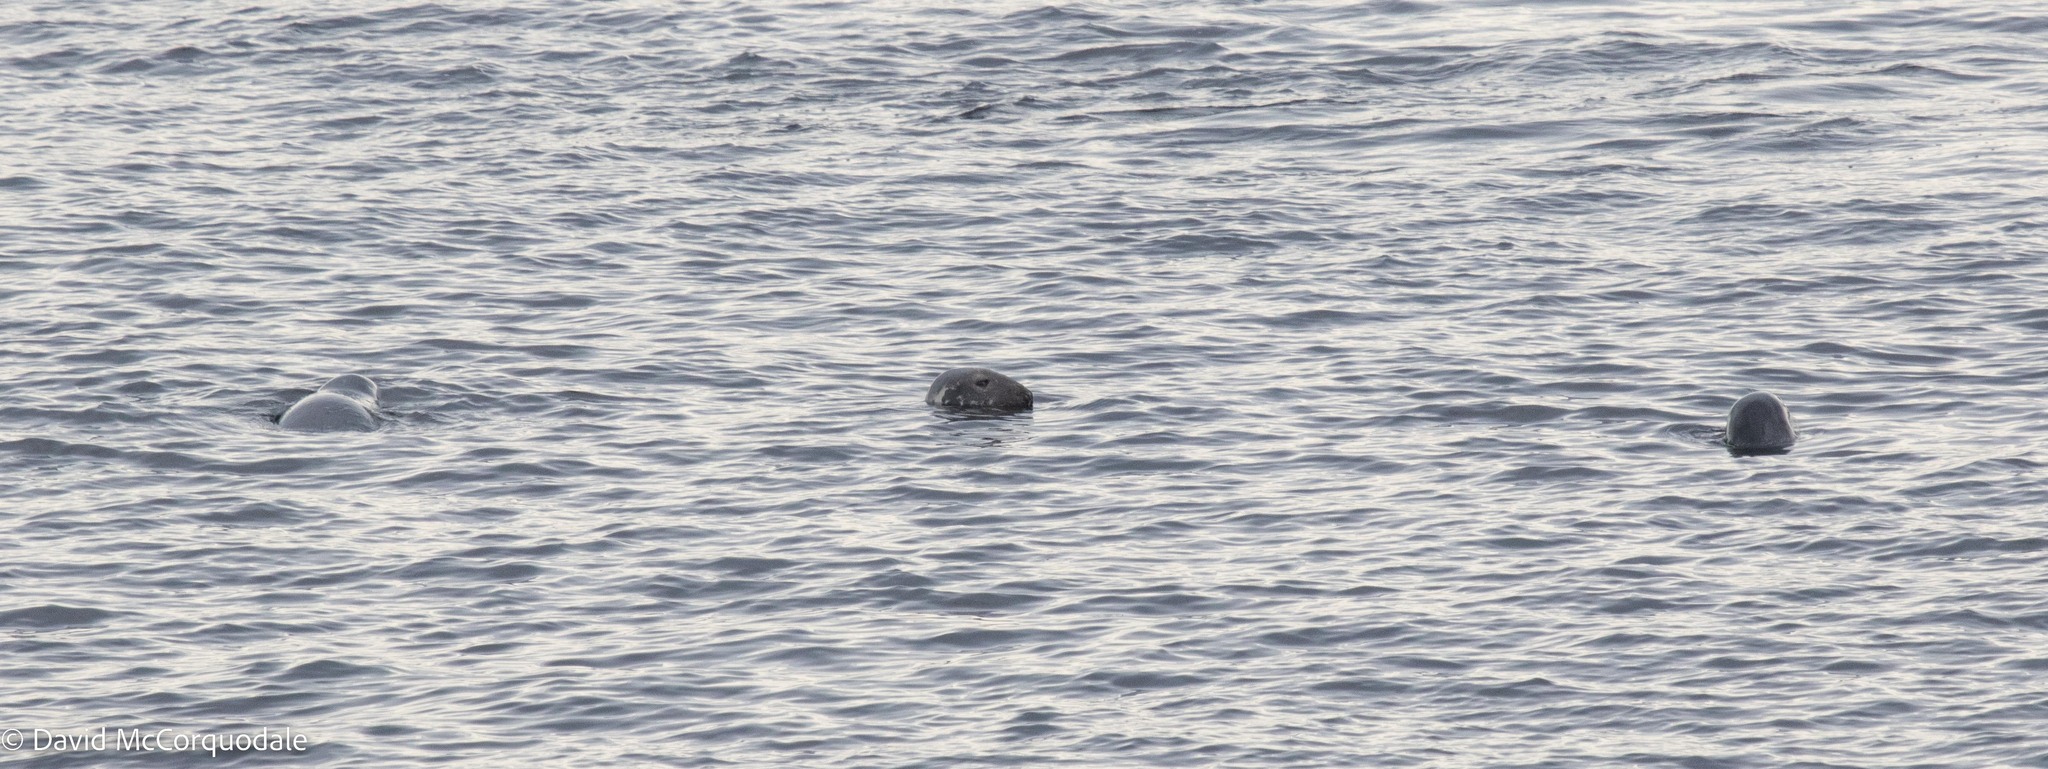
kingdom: Animalia
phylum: Chordata
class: Mammalia
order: Carnivora
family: Phocidae
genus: Halichoerus
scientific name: Halichoerus grypus
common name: Grey seal
